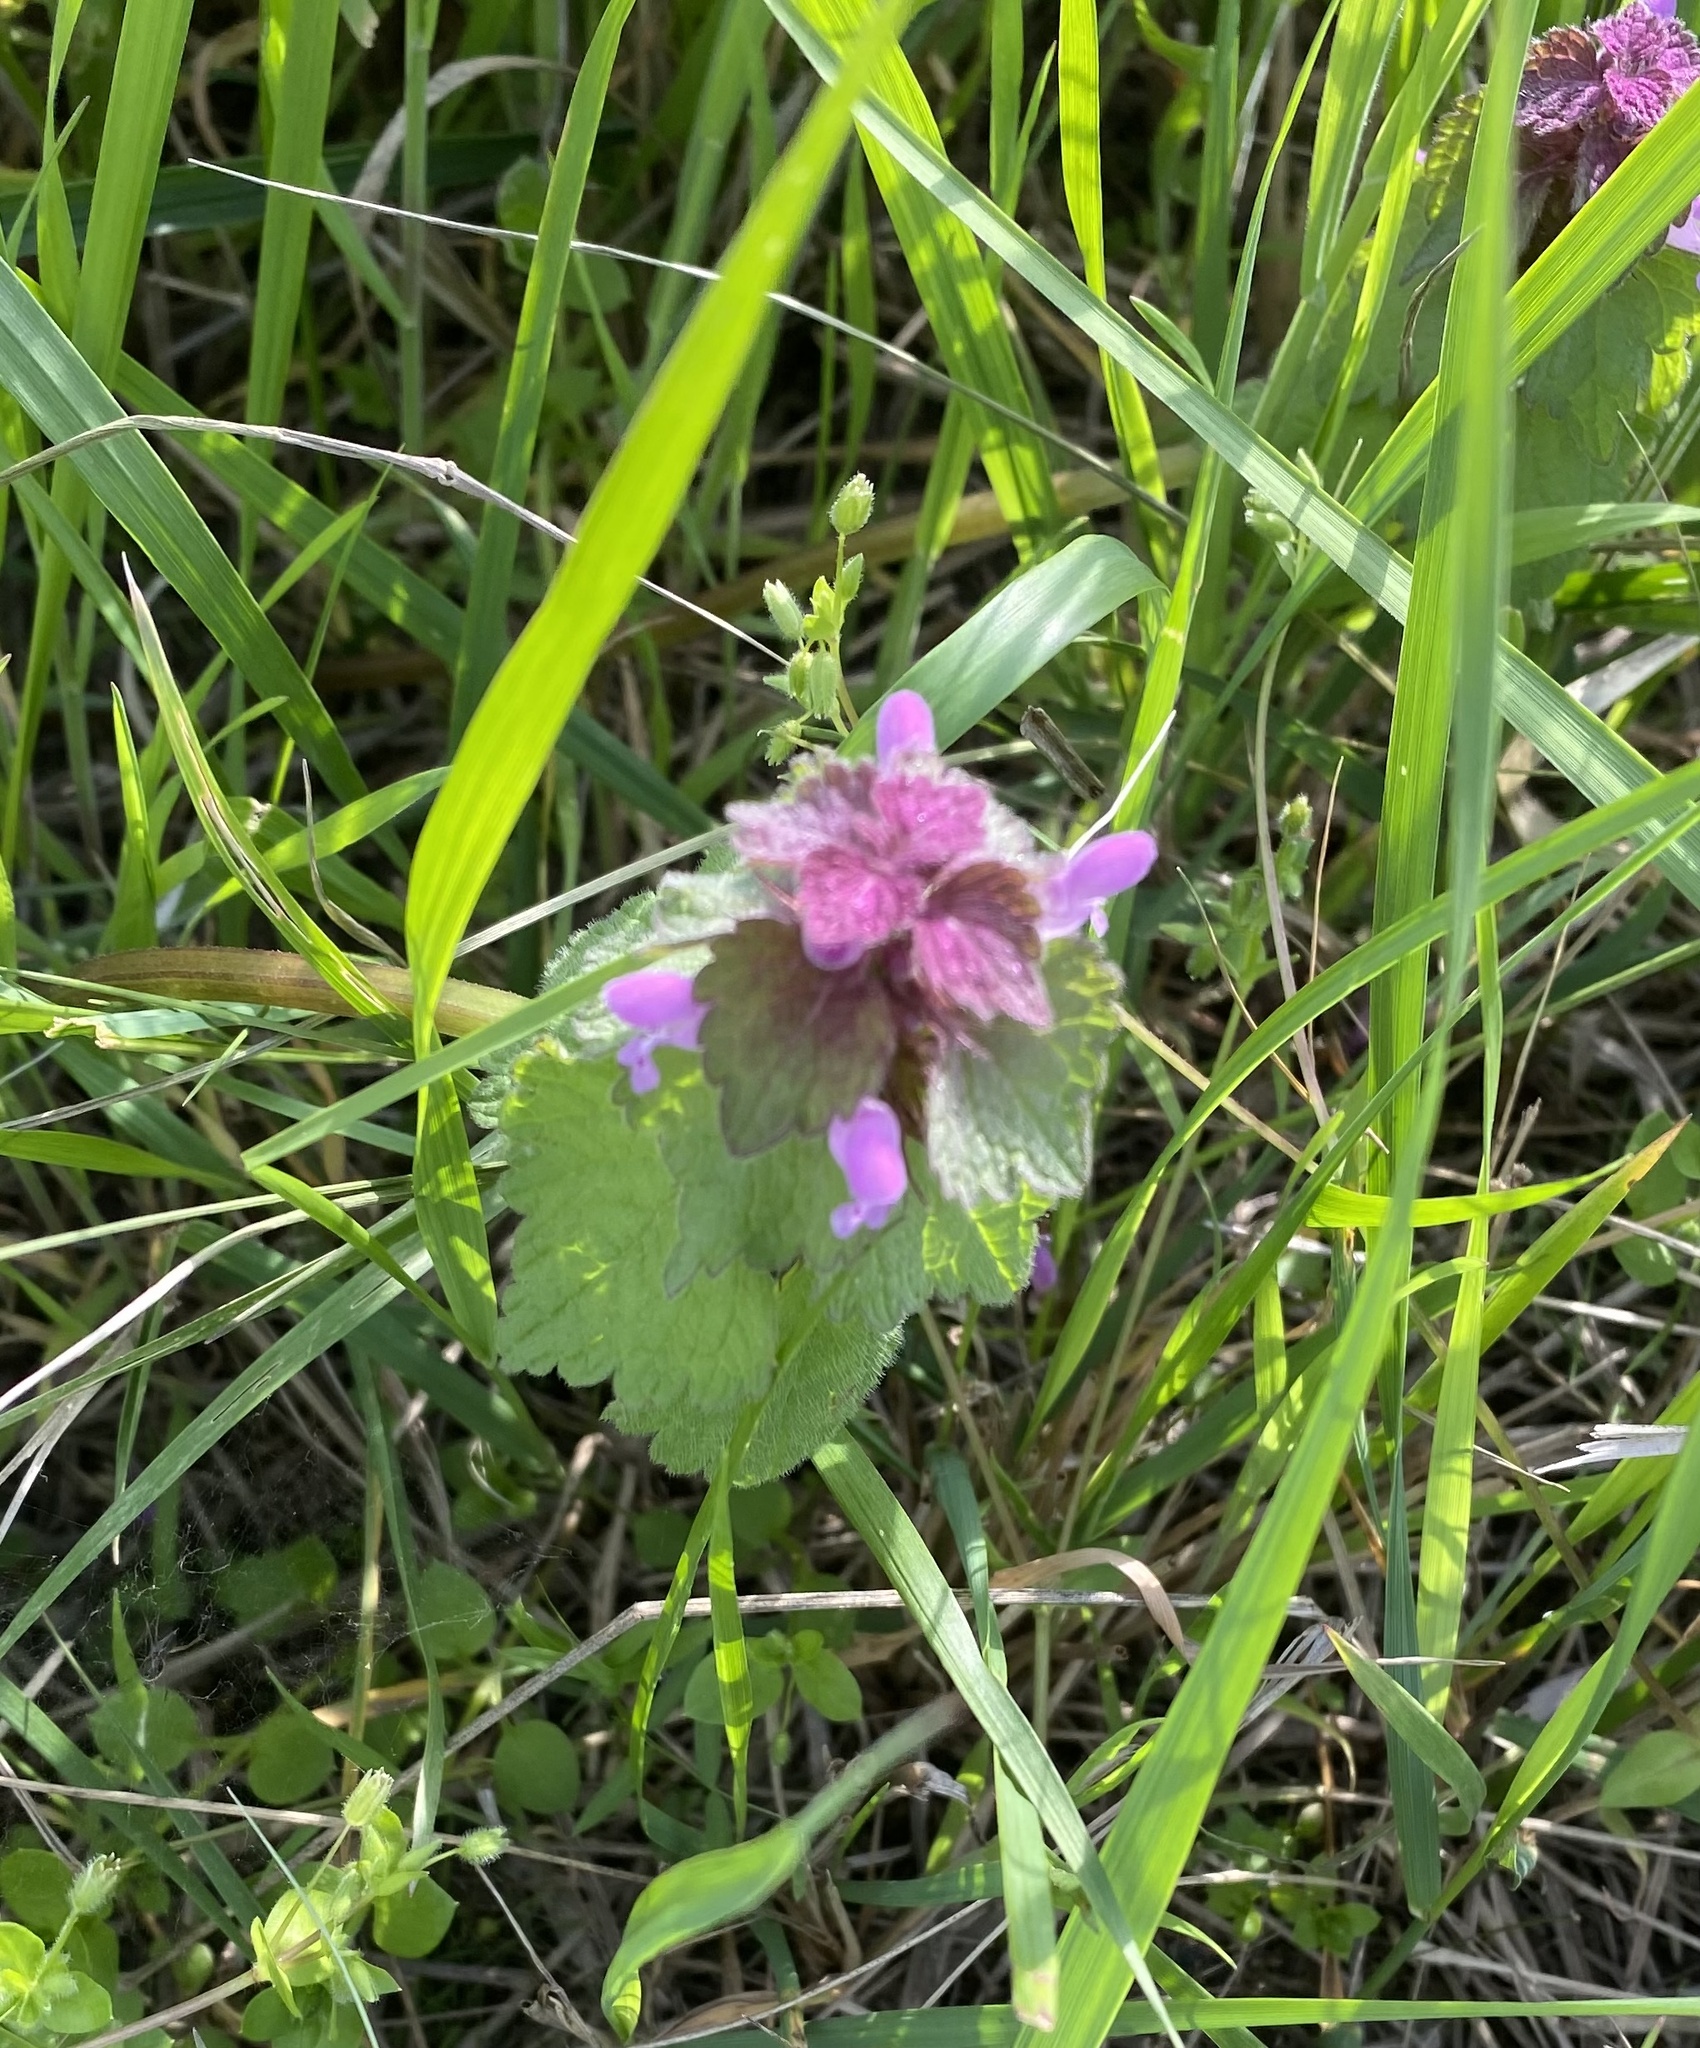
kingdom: Plantae
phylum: Tracheophyta
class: Magnoliopsida
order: Lamiales
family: Lamiaceae
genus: Lamium
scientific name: Lamium purpureum
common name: Red dead-nettle
